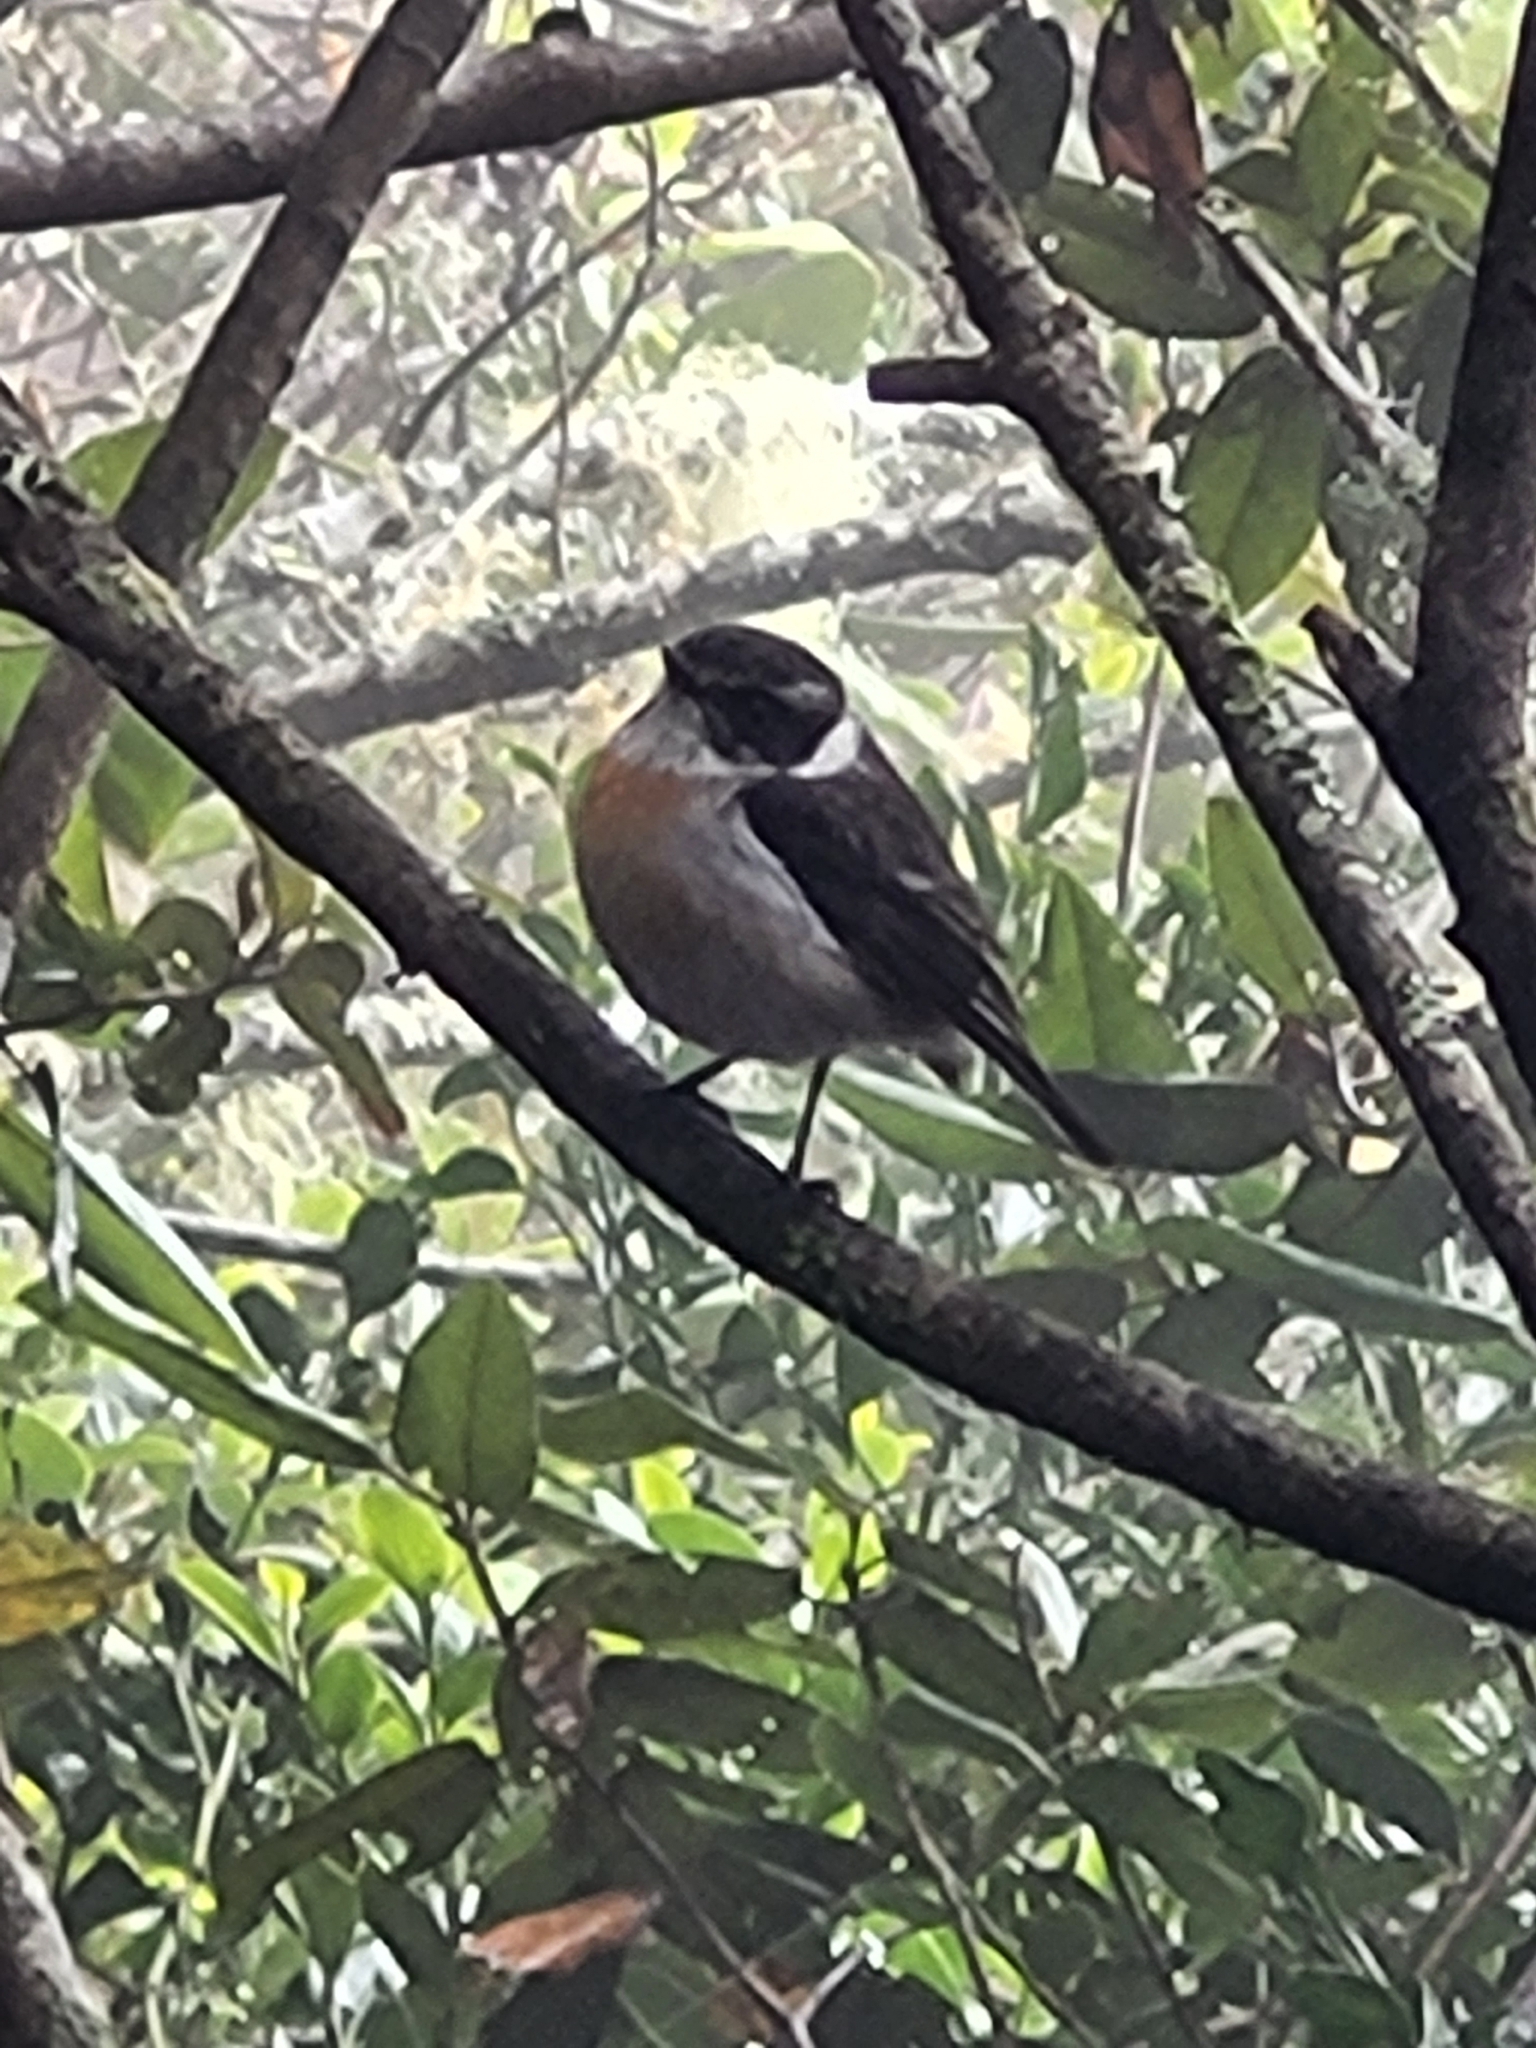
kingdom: Animalia
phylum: Chordata
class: Aves
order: Passeriformes
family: Muscicapidae
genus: Saxicola
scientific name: Saxicola tectes
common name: Reunion stonechat
